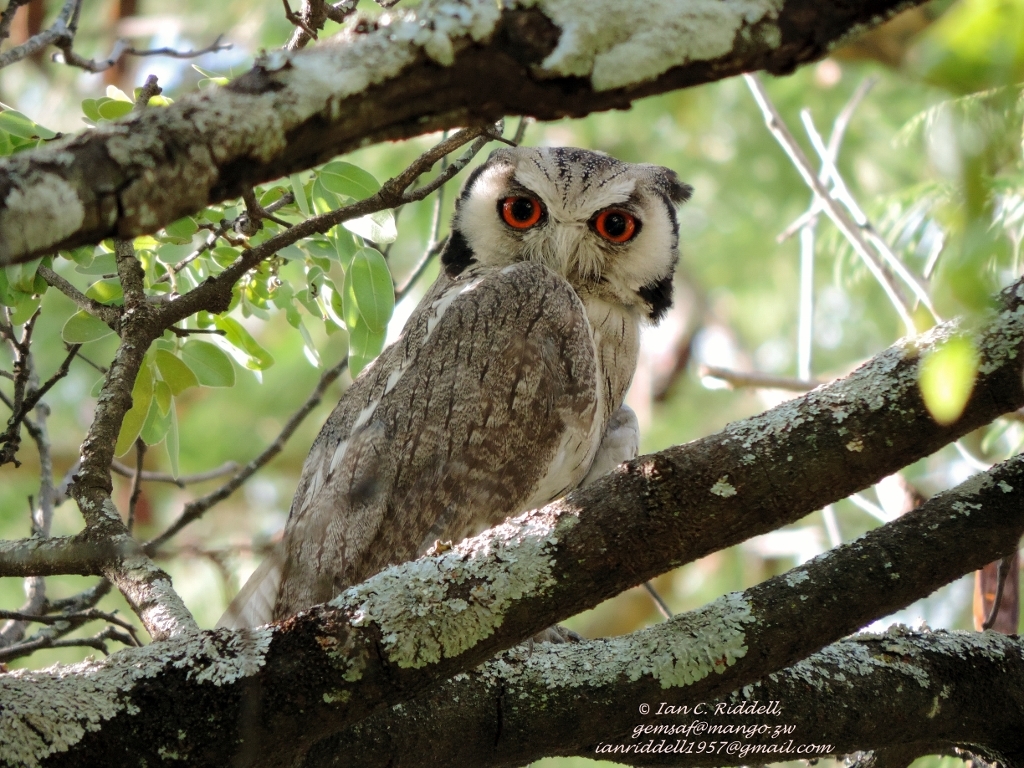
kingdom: Animalia
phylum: Chordata
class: Aves
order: Strigiformes
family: Strigidae
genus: Ptilopsis
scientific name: Ptilopsis granti
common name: Southern white-faced owl
